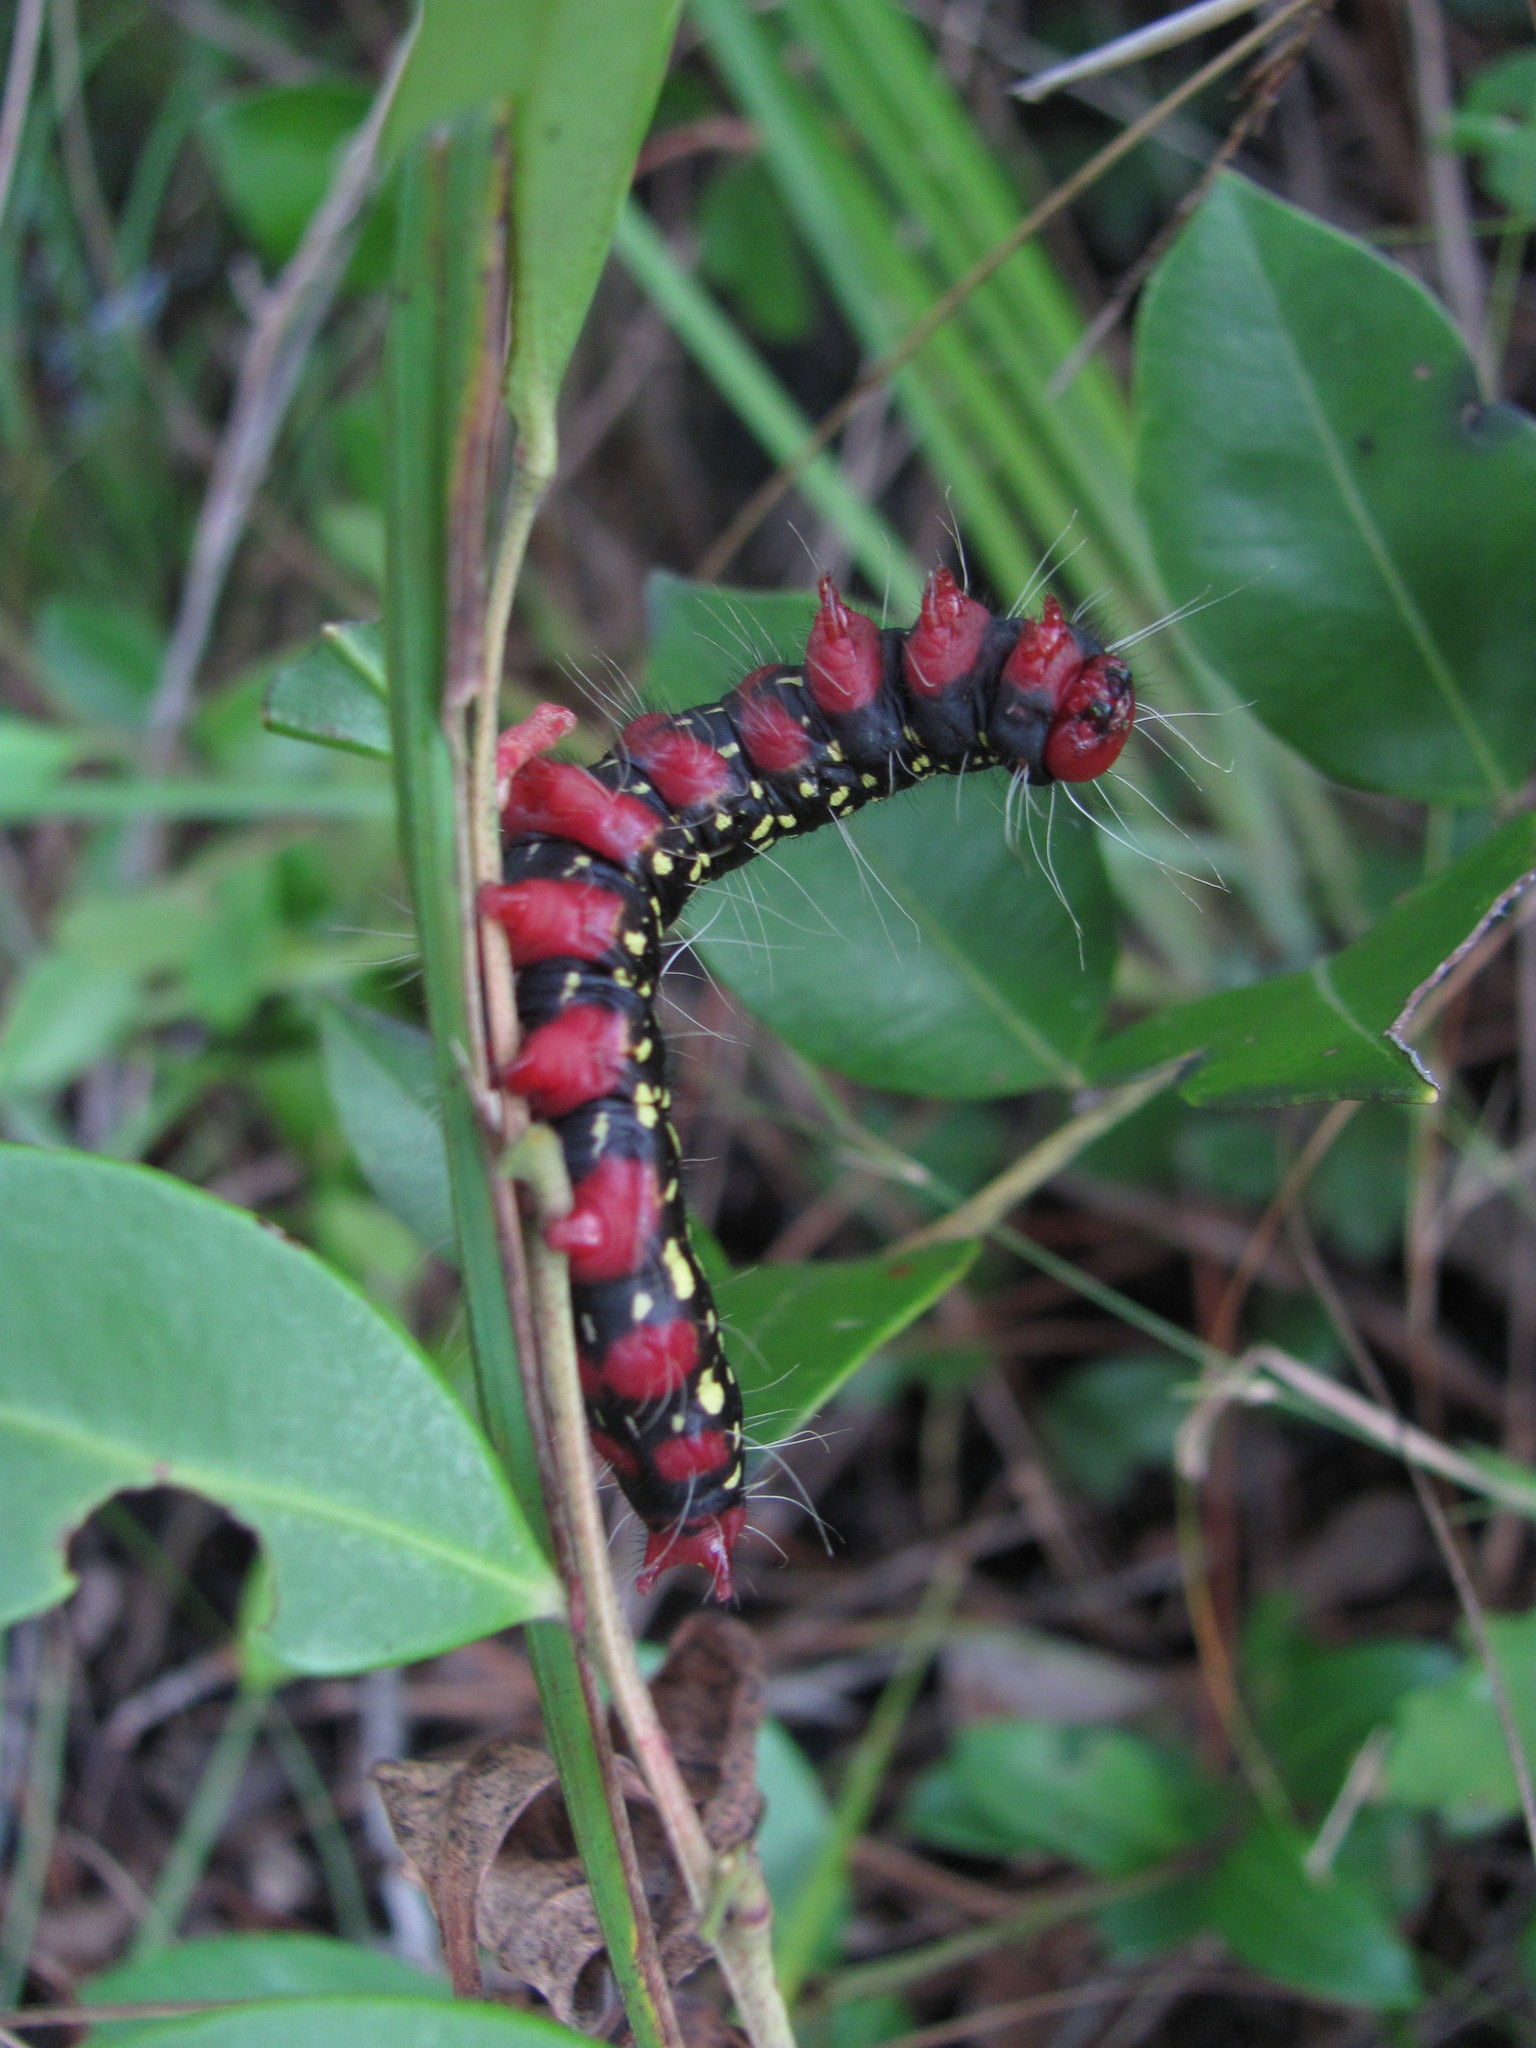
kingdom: Animalia
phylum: Arthropoda
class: Insecta
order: Lepidoptera
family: Notodontidae
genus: Datana
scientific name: Datana major
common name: Azalea caterpillar
